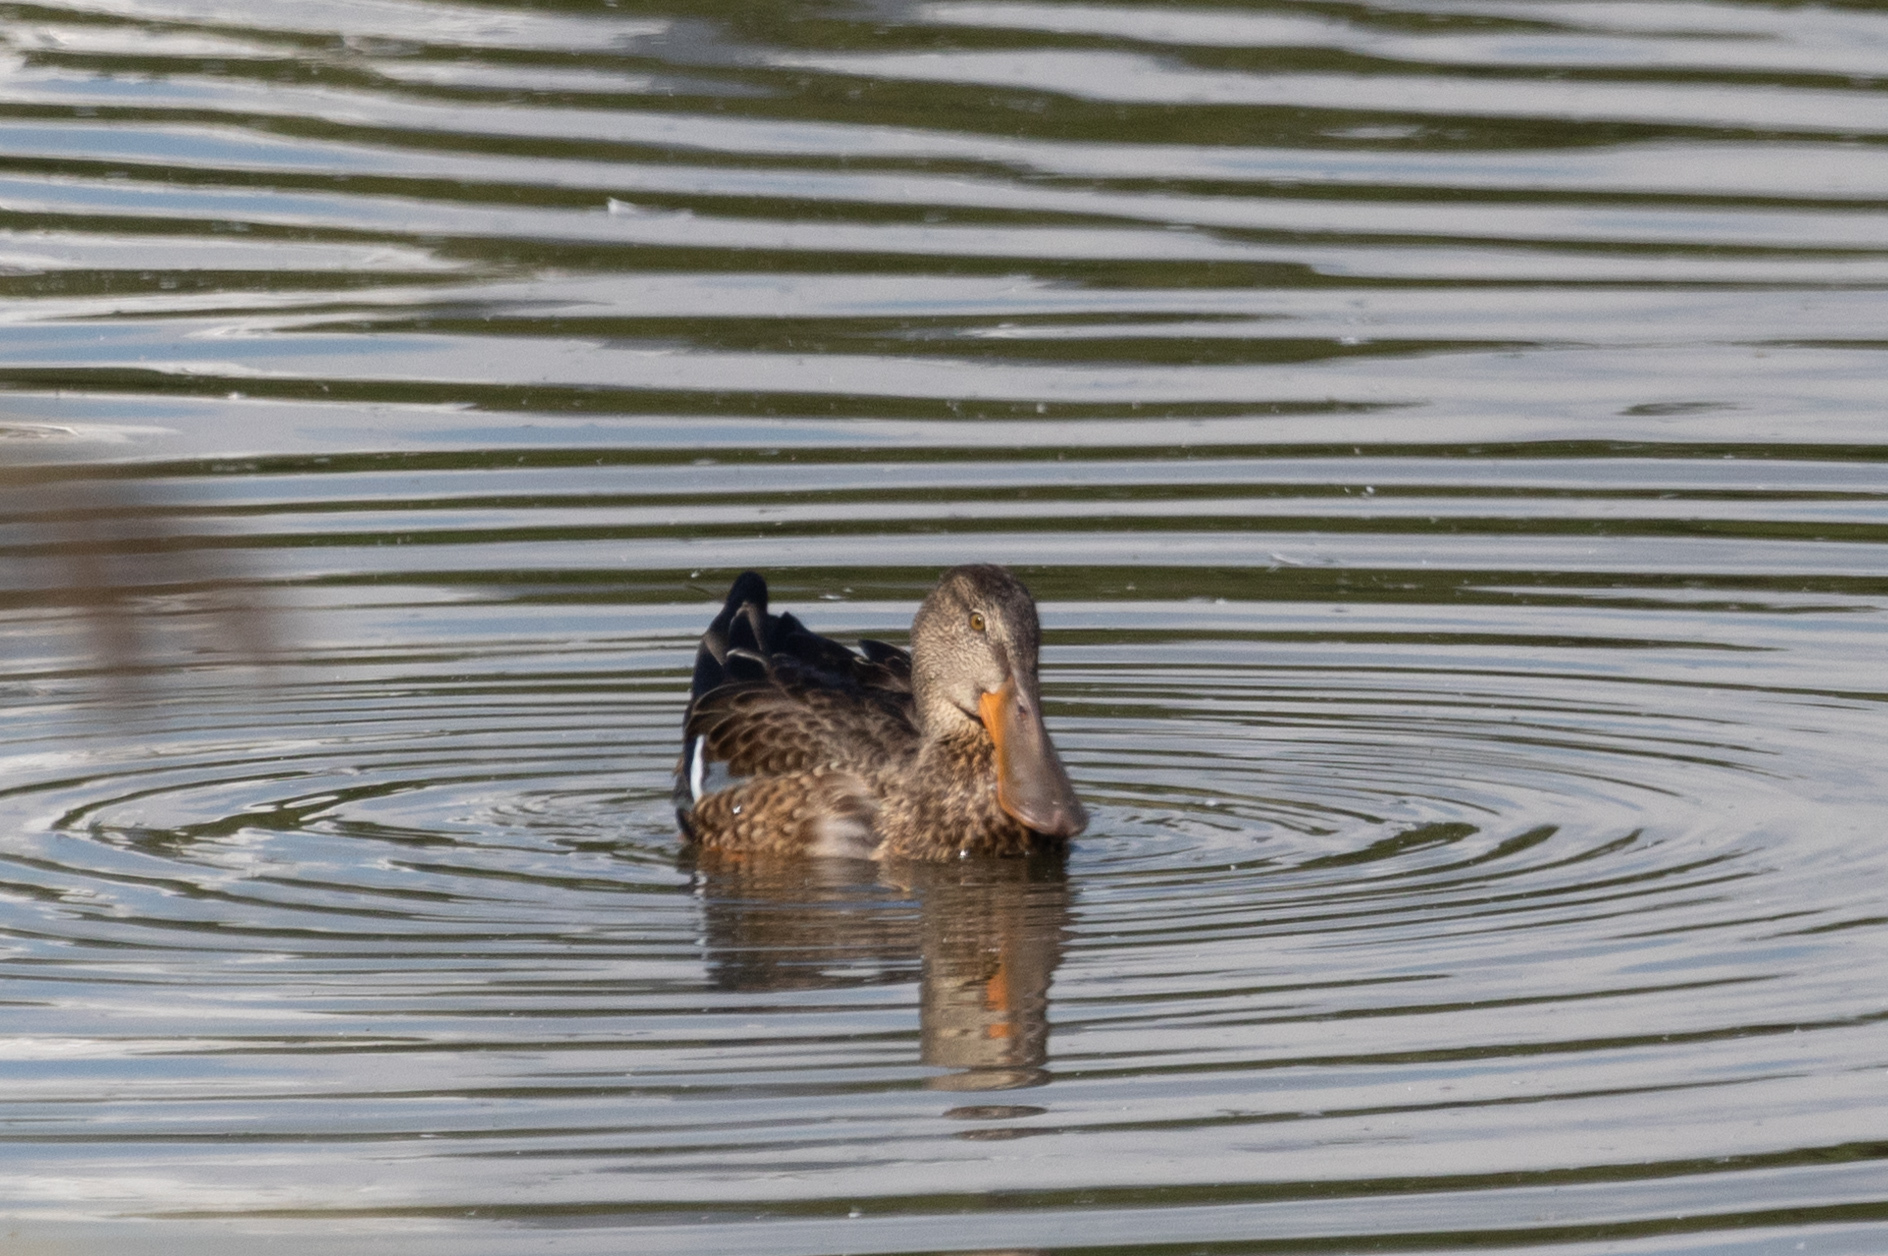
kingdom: Animalia
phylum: Chordata
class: Aves
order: Anseriformes
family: Anatidae
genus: Spatula
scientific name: Spatula clypeata
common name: Northern shoveler
